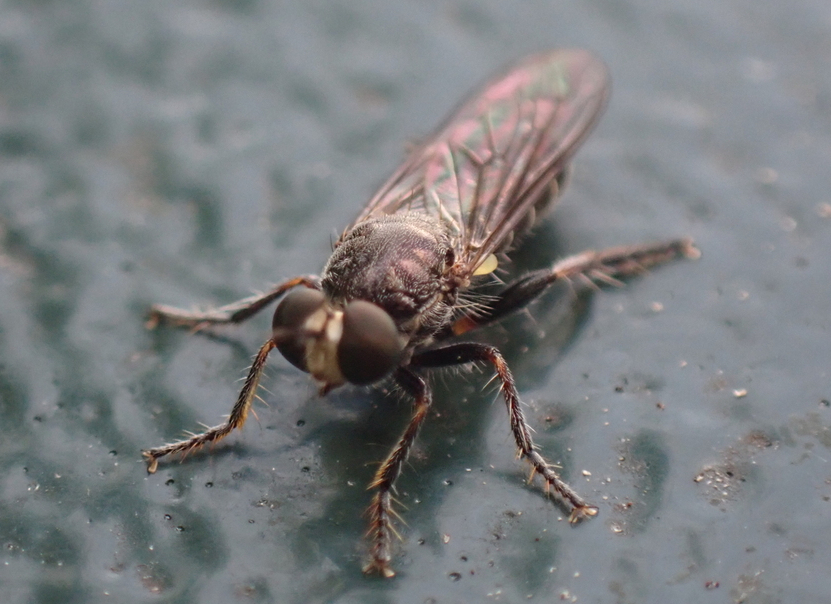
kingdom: Animalia
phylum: Arthropoda
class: Insecta
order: Diptera
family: Asilidae
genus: Atomosia
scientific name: Atomosia puella
